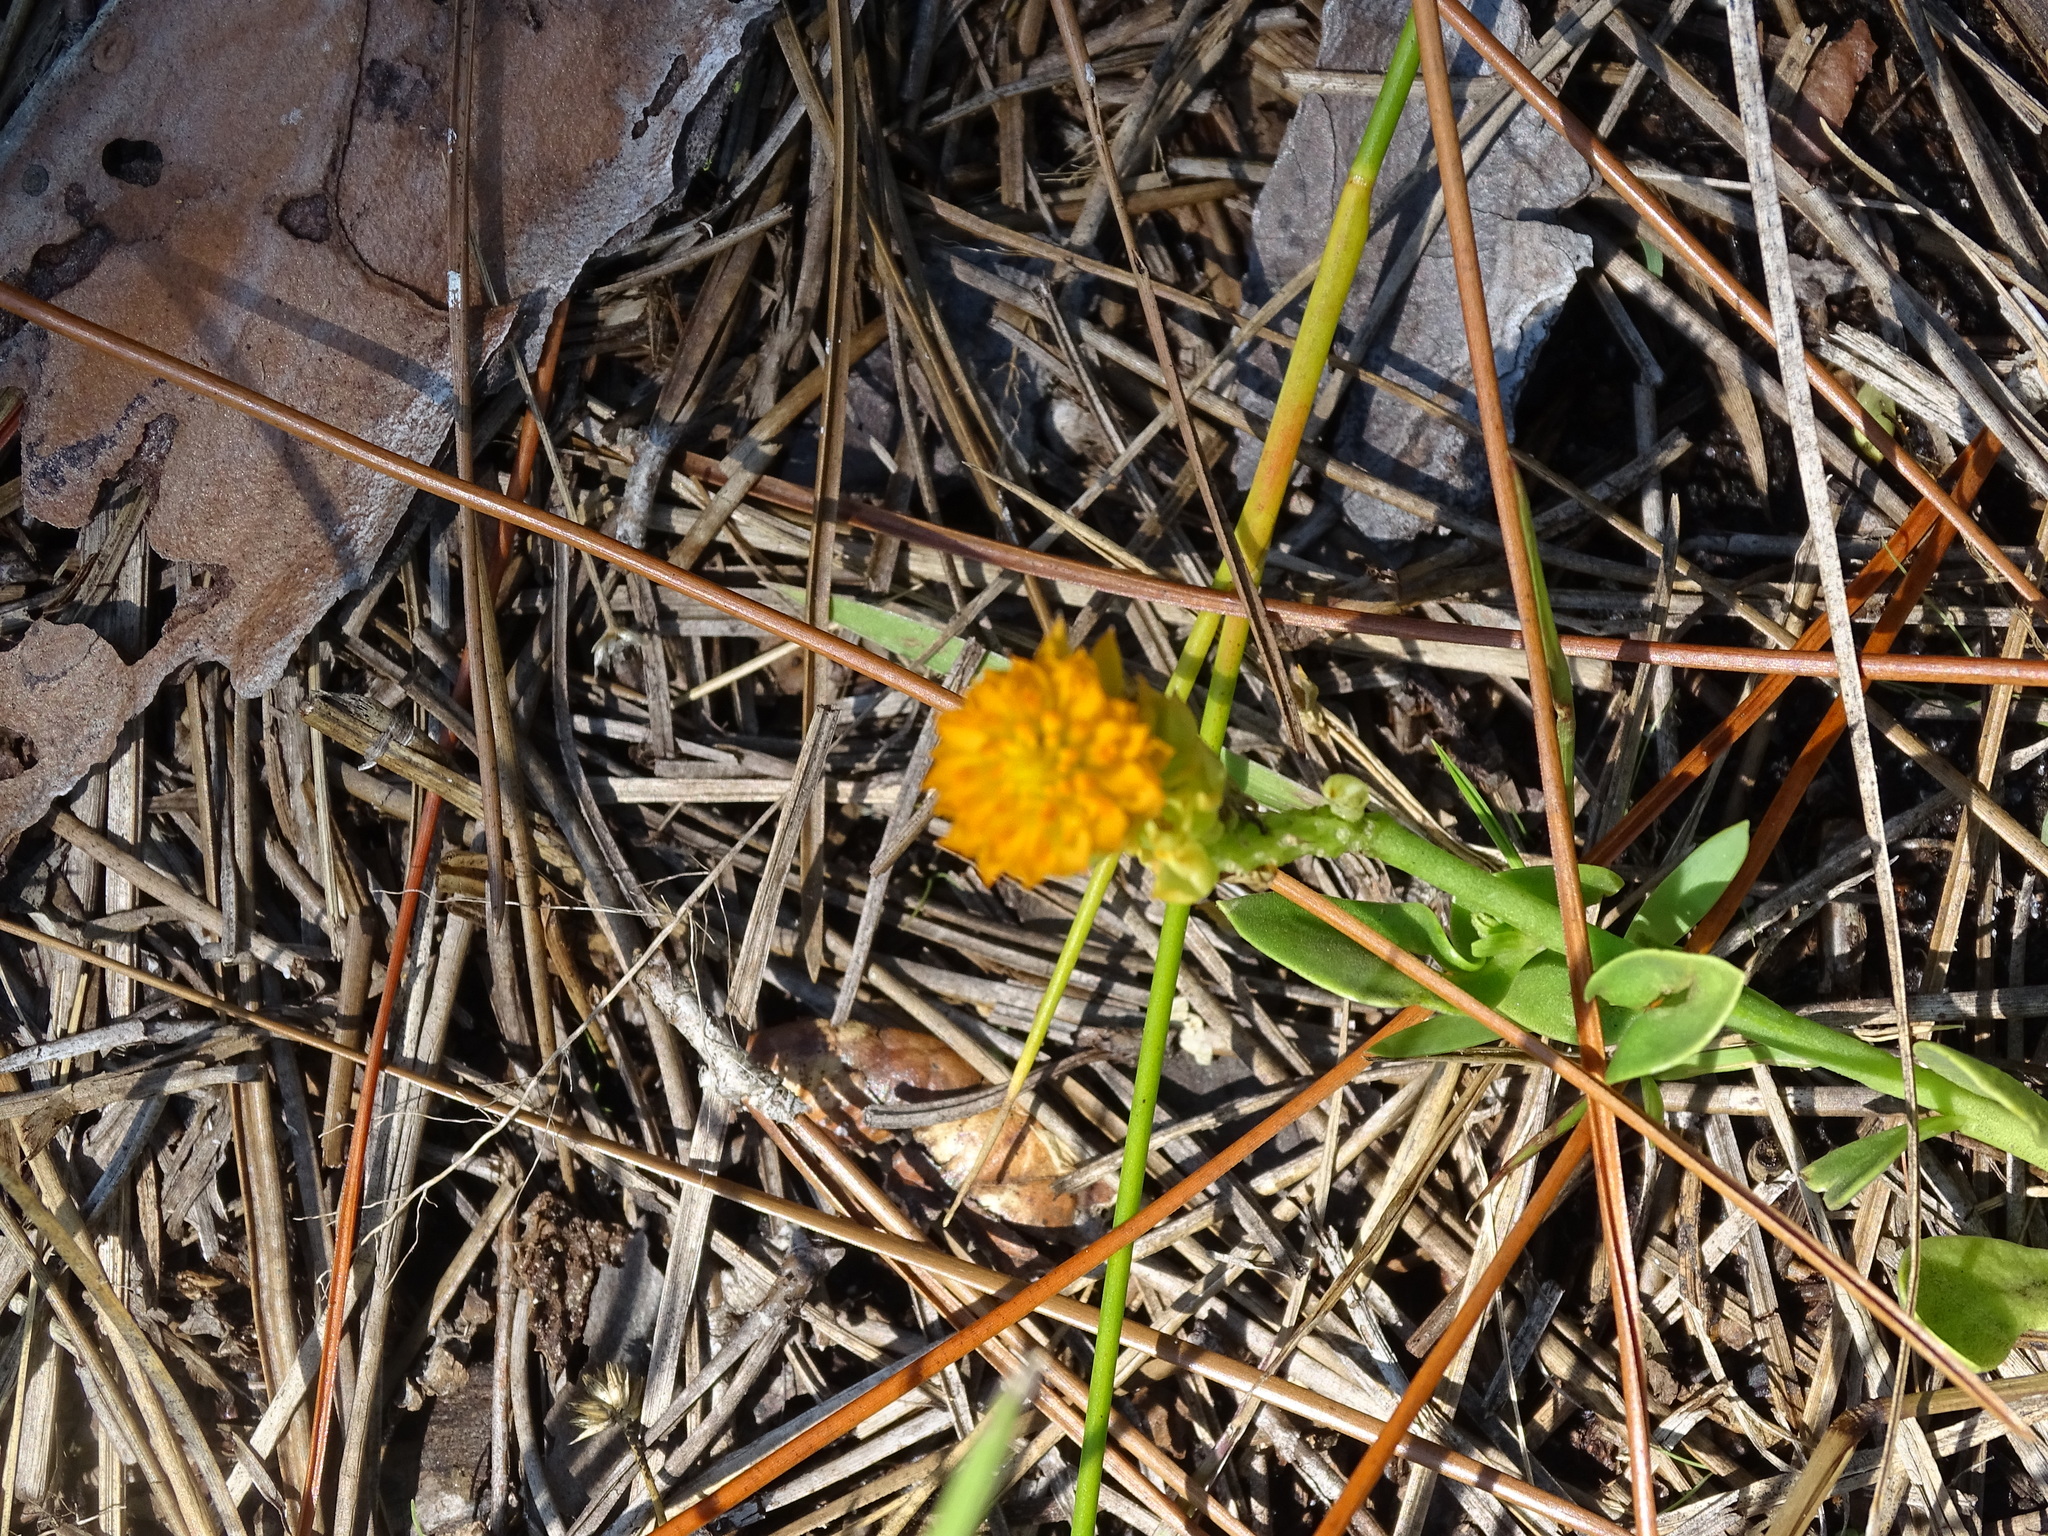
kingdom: Plantae
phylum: Tracheophyta
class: Magnoliopsida
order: Fabales
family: Polygalaceae
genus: Polygala
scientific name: Polygala lutea
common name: Orange milkwort
